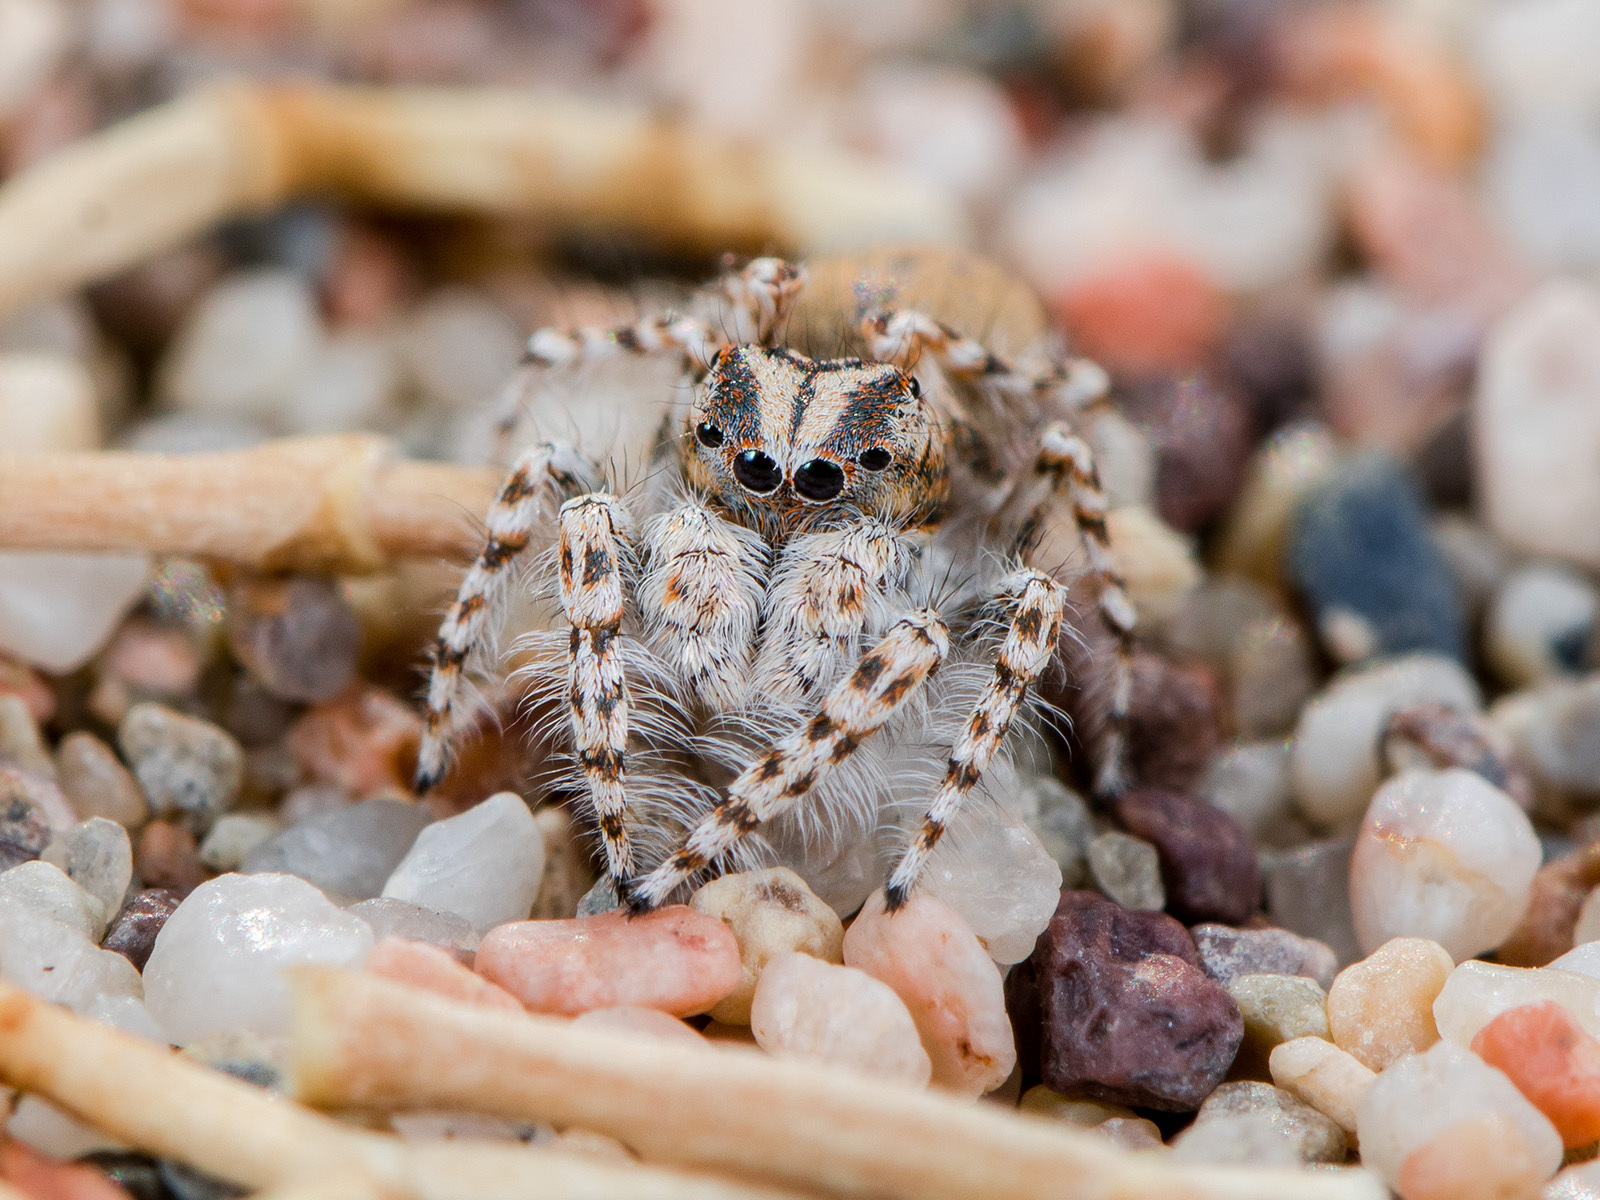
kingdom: Animalia
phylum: Arthropoda
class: Arachnida
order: Araneae
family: Salticidae
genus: Yllenus
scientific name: Yllenus uiguricus
